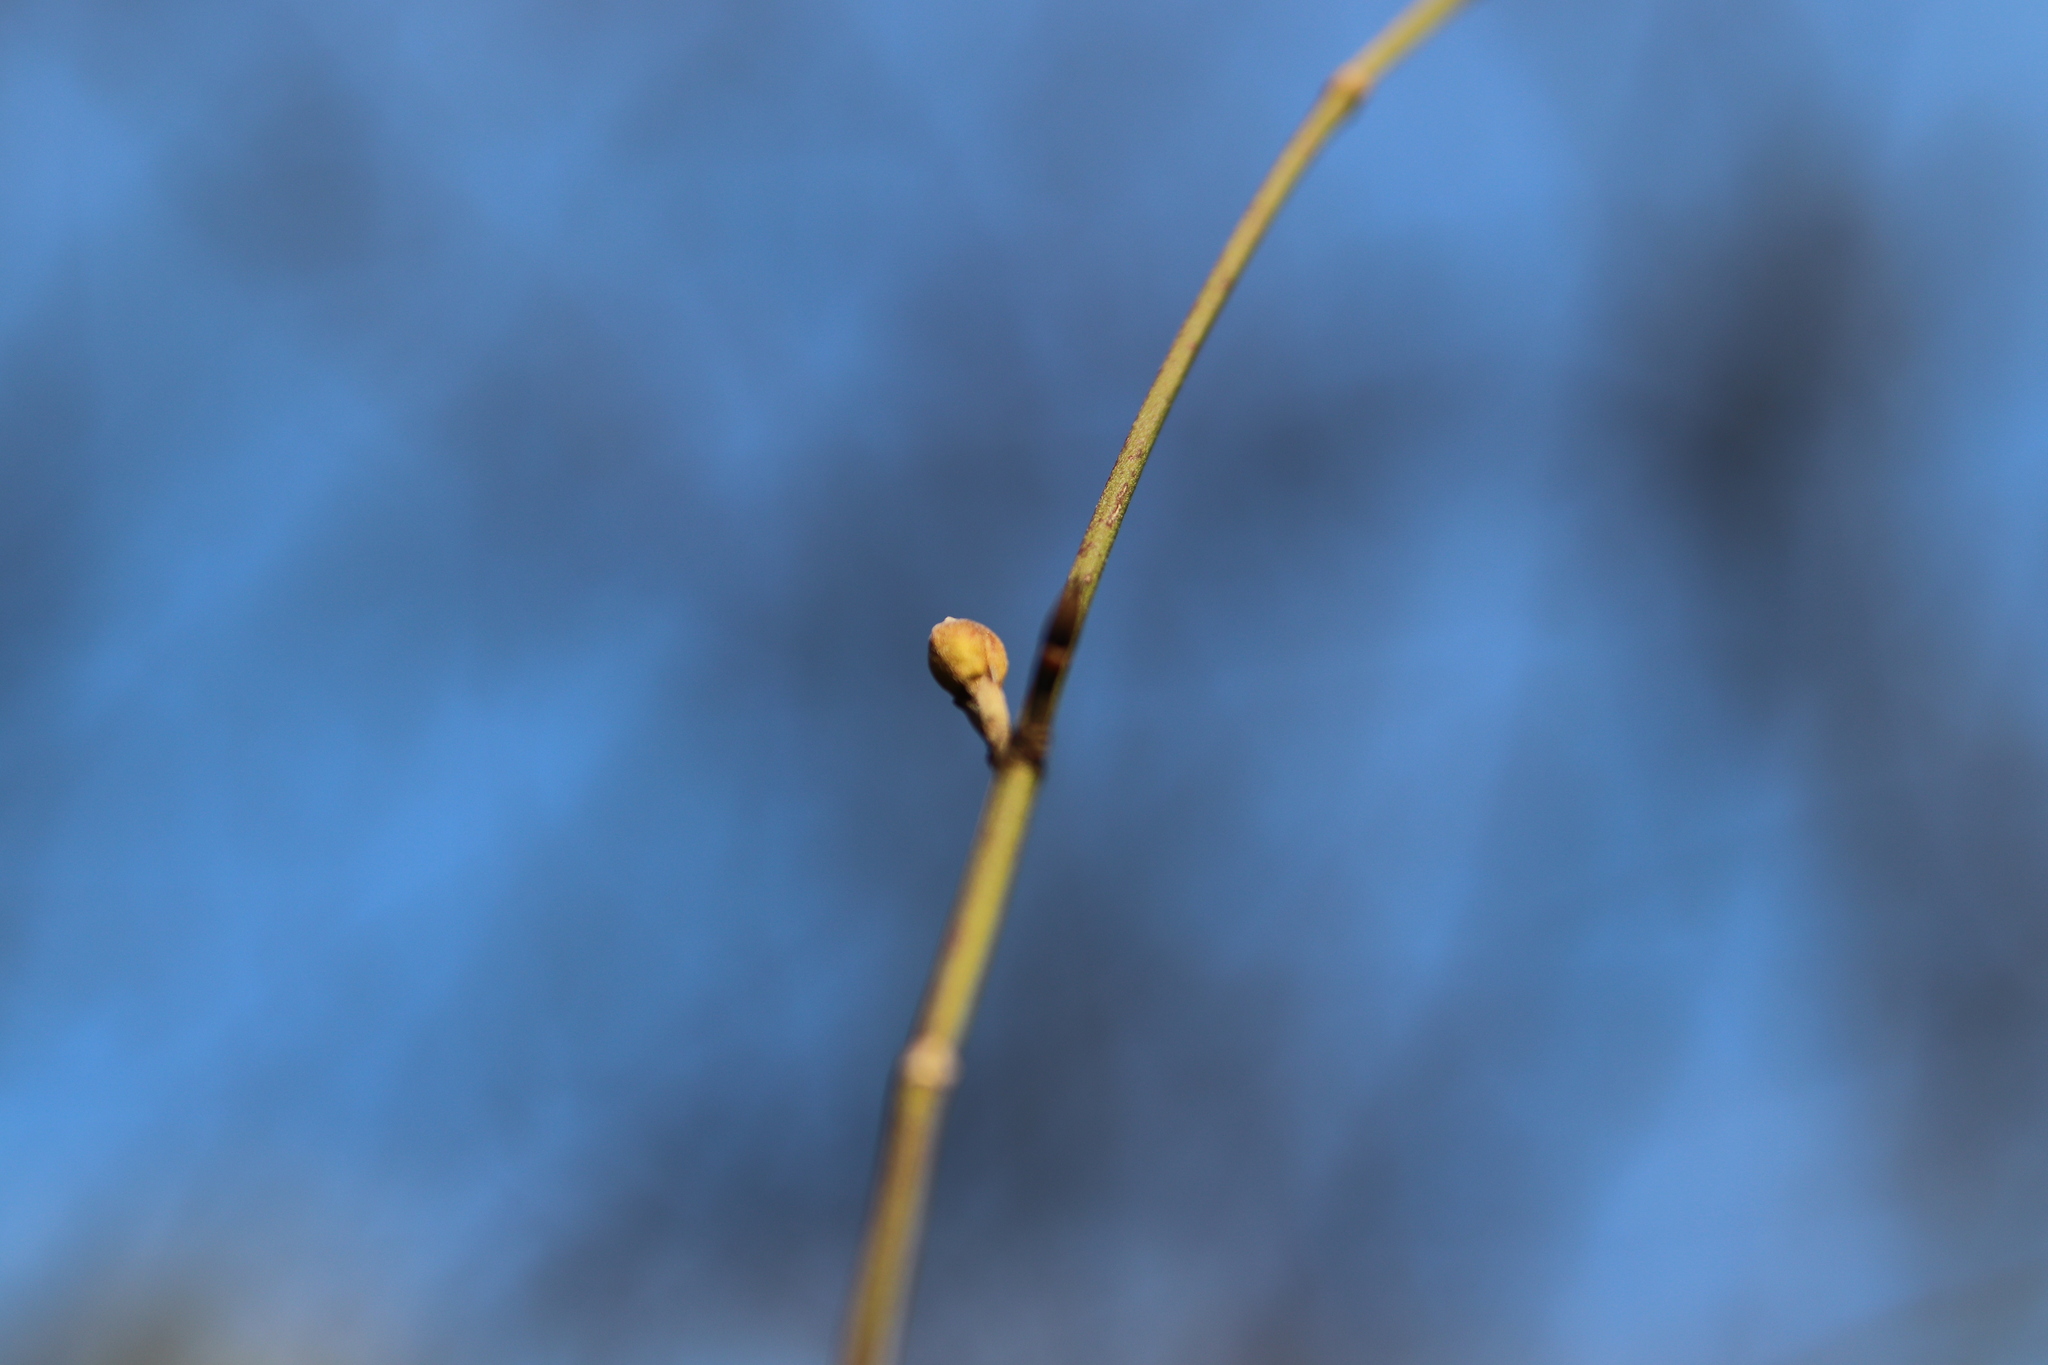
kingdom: Plantae
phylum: Tracheophyta
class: Magnoliopsida
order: Cornales
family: Cornaceae
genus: Cornus
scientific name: Cornus mas
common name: Cornelian-cherry
